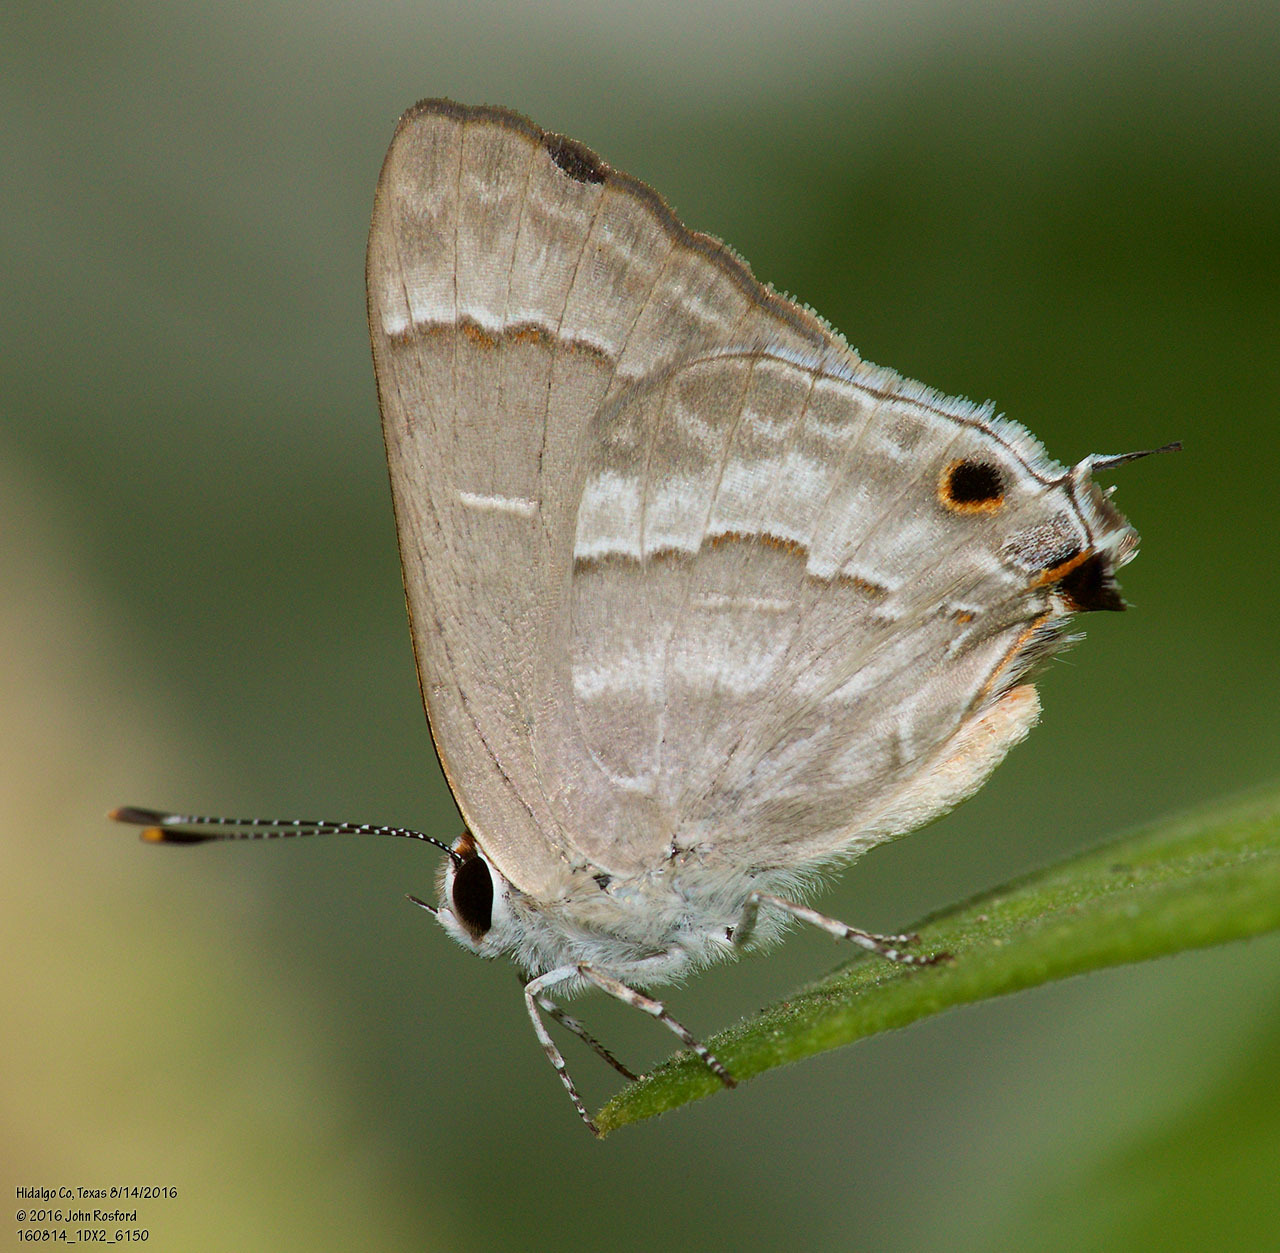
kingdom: Animalia
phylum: Arthropoda
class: Insecta
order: Lepidoptera
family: Lycaenidae
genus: Thecla
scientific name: Thecla yojoa
